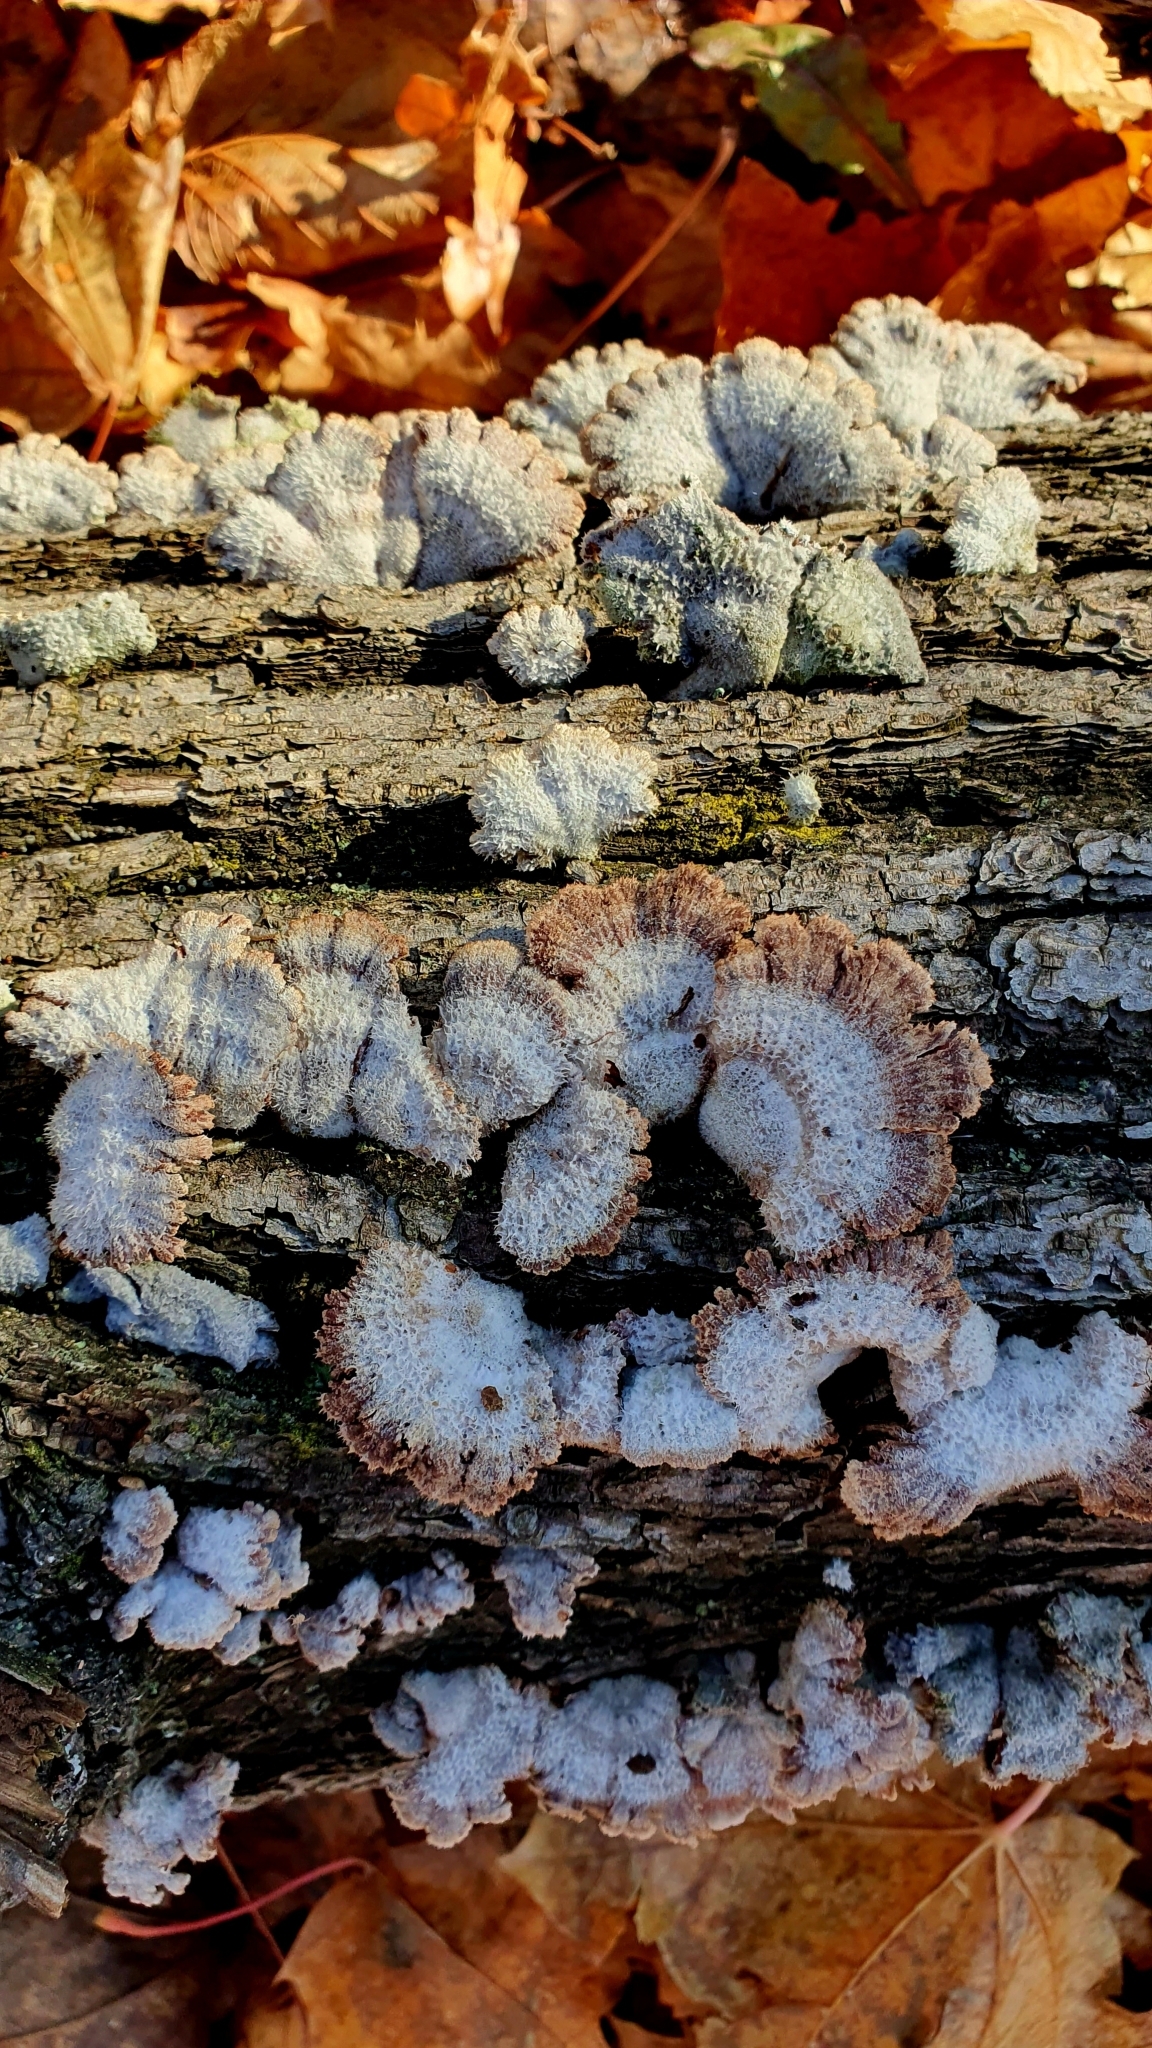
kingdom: Fungi
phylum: Basidiomycota
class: Agaricomycetes
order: Agaricales
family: Schizophyllaceae
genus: Schizophyllum
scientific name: Schizophyllum commune
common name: Common porecrust
